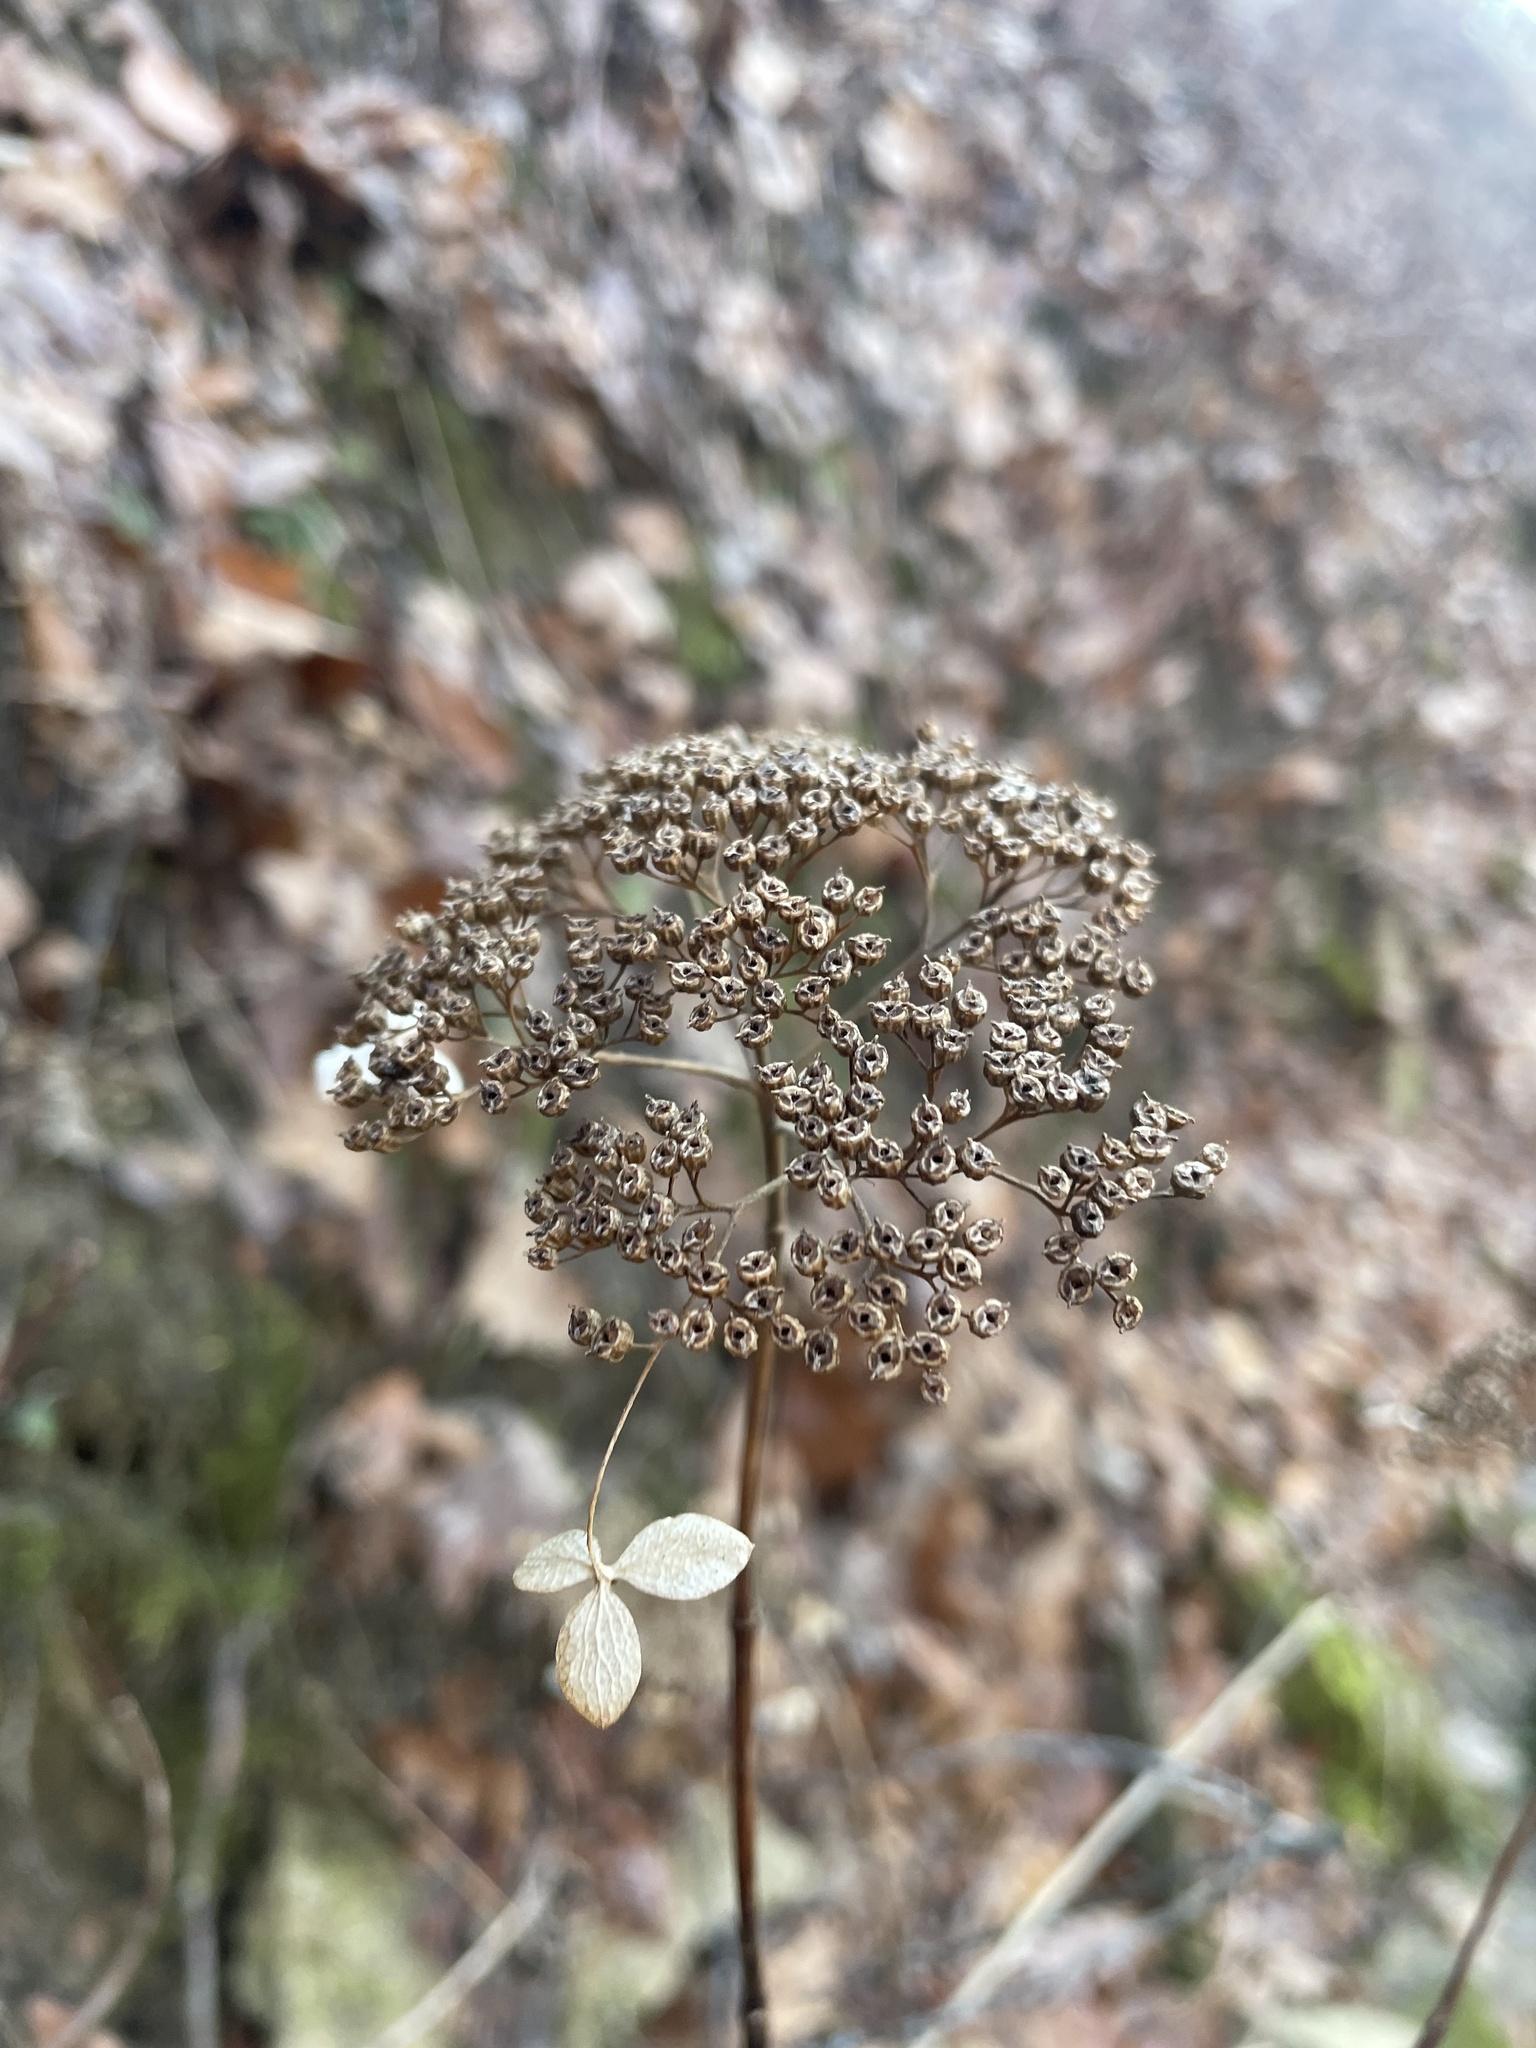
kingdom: Plantae
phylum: Tracheophyta
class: Magnoliopsida
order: Cornales
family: Hydrangeaceae
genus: Hydrangea
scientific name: Hydrangea arborescens
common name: Sevenbark
